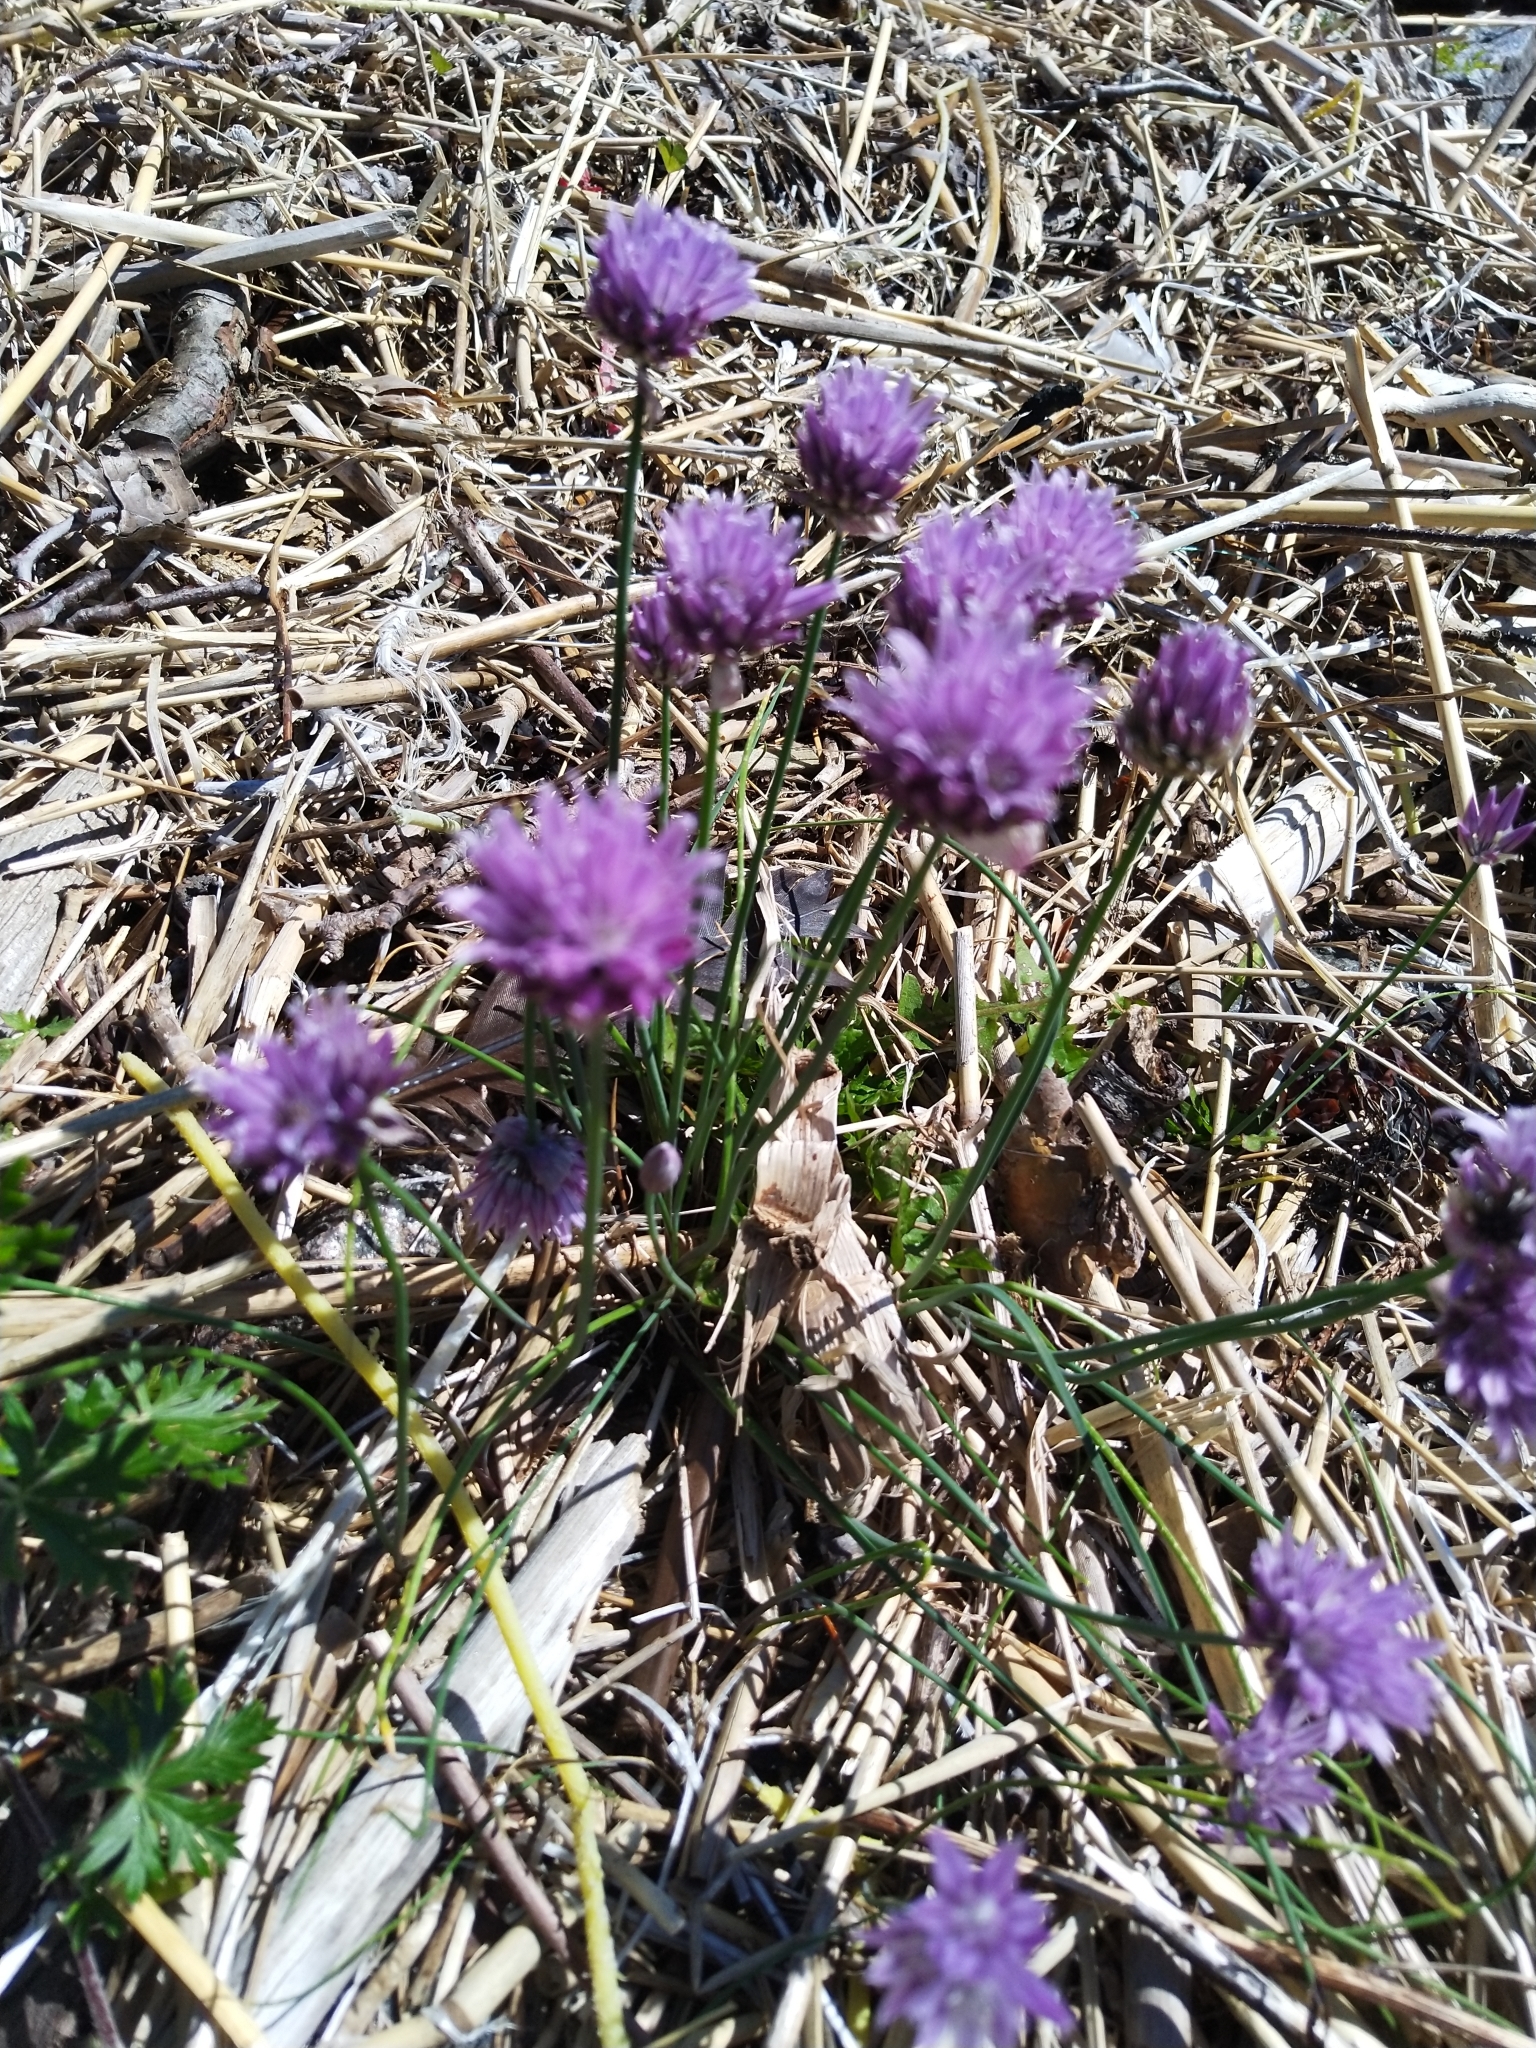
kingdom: Plantae
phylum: Tracheophyta
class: Liliopsida
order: Asparagales
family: Amaryllidaceae
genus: Allium
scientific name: Allium schoenoprasum
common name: Chives
